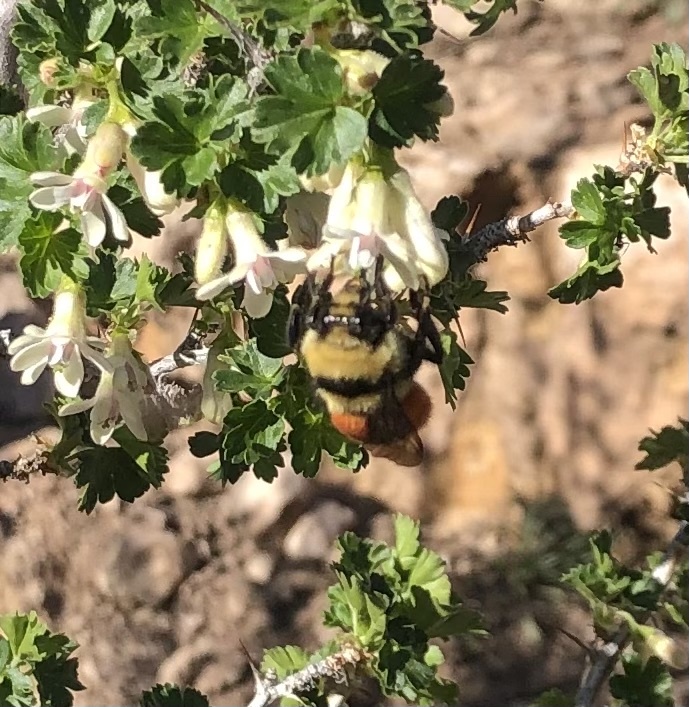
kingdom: Animalia
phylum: Arthropoda
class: Insecta
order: Hymenoptera
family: Apidae
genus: Bombus
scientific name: Bombus huntii
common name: Hunt bumble bee
